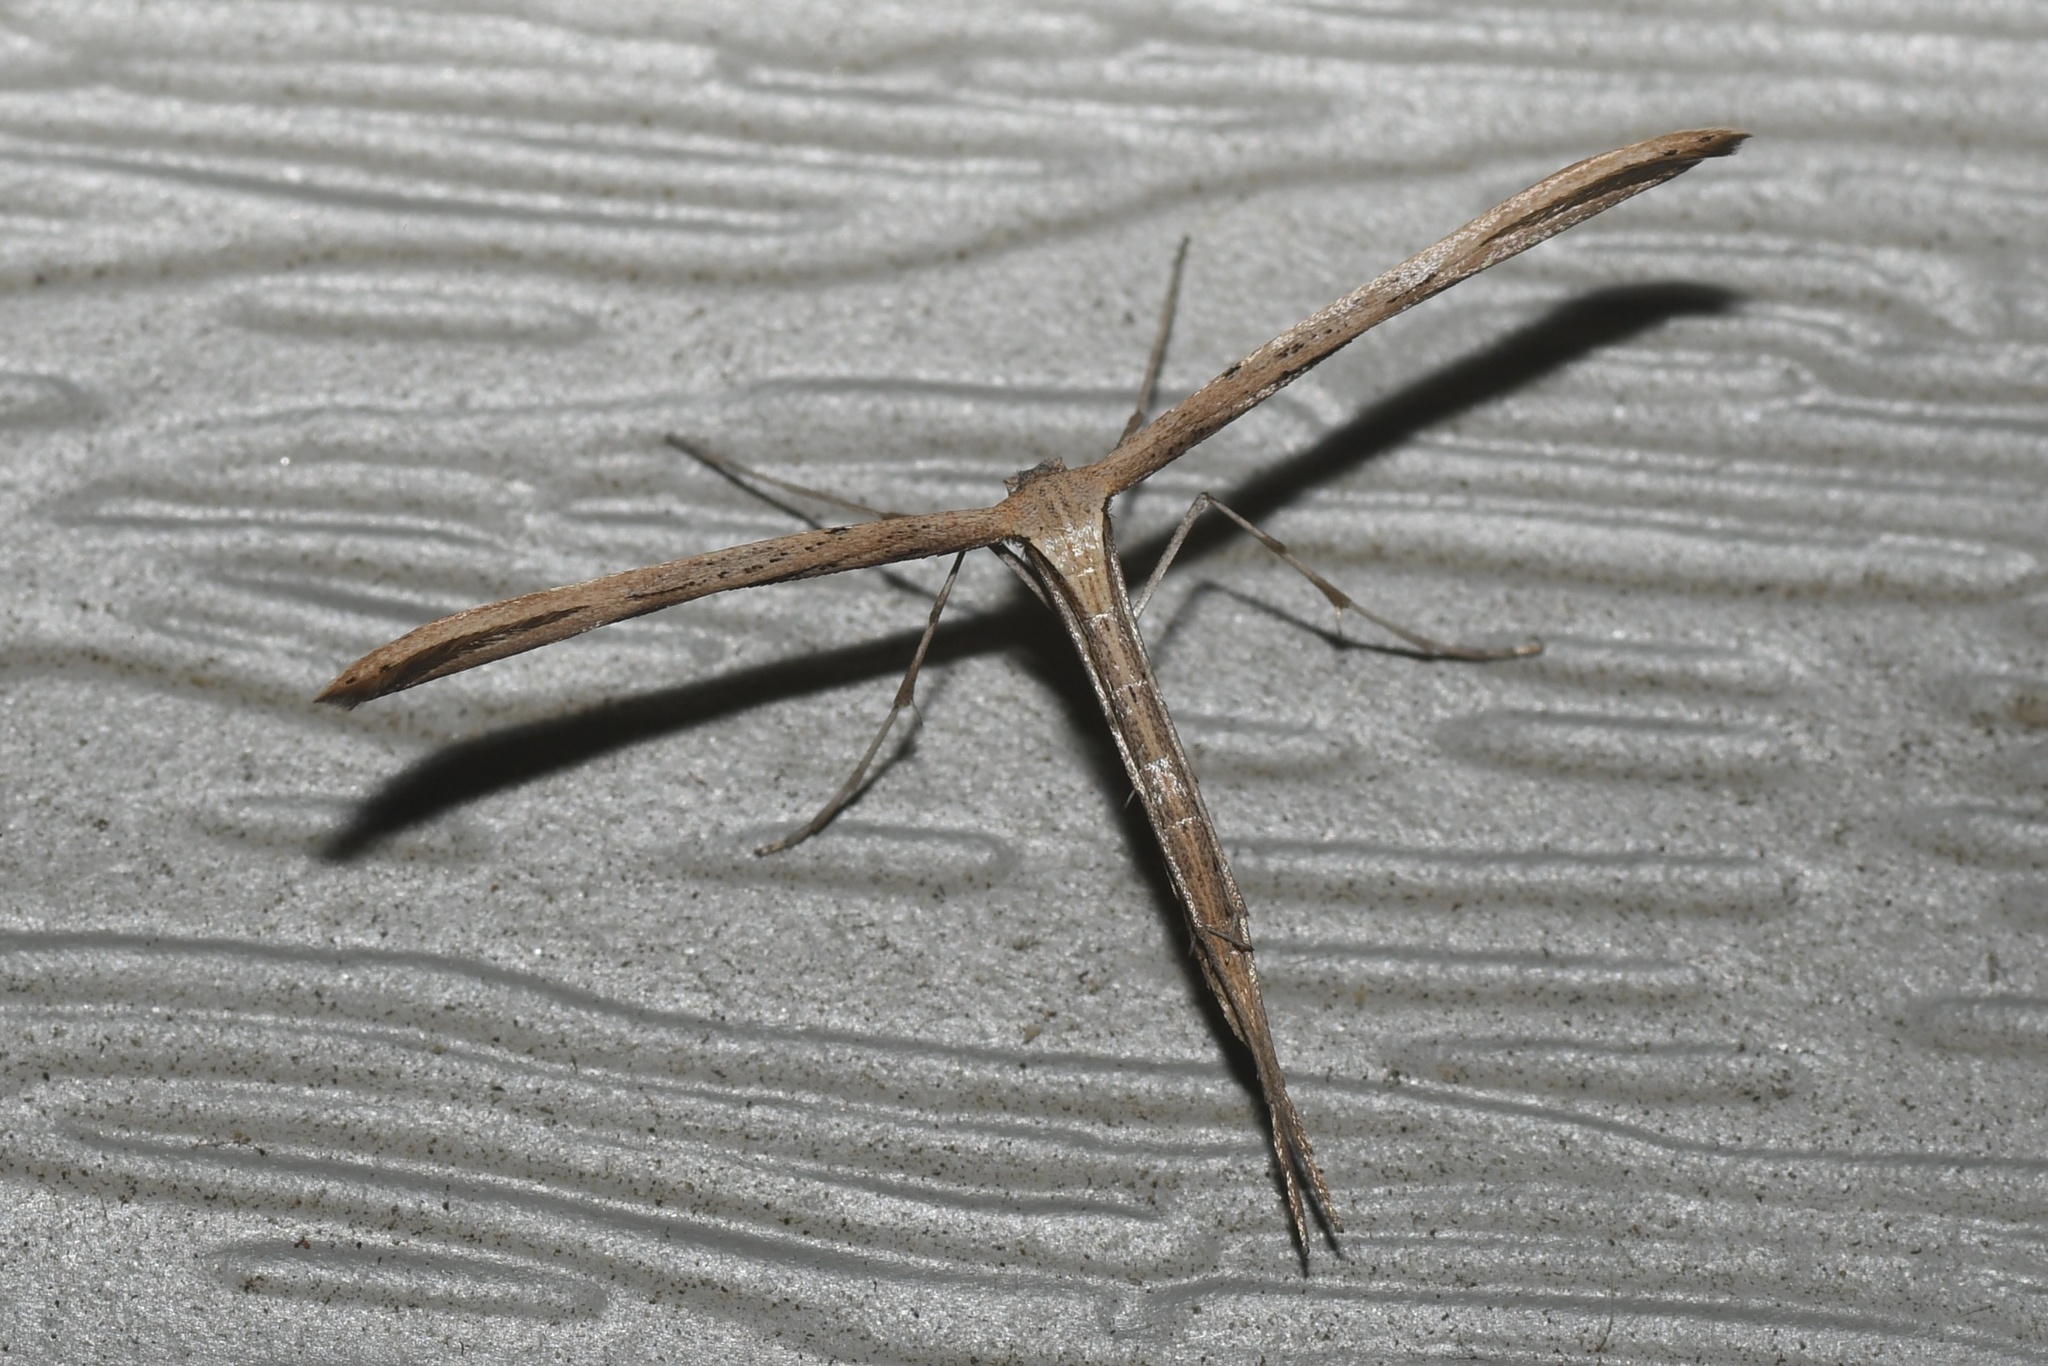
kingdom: Animalia
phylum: Arthropoda
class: Insecta
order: Lepidoptera
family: Pterophoridae
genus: Emmelina
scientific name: Emmelina monodactyla
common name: Common plume
